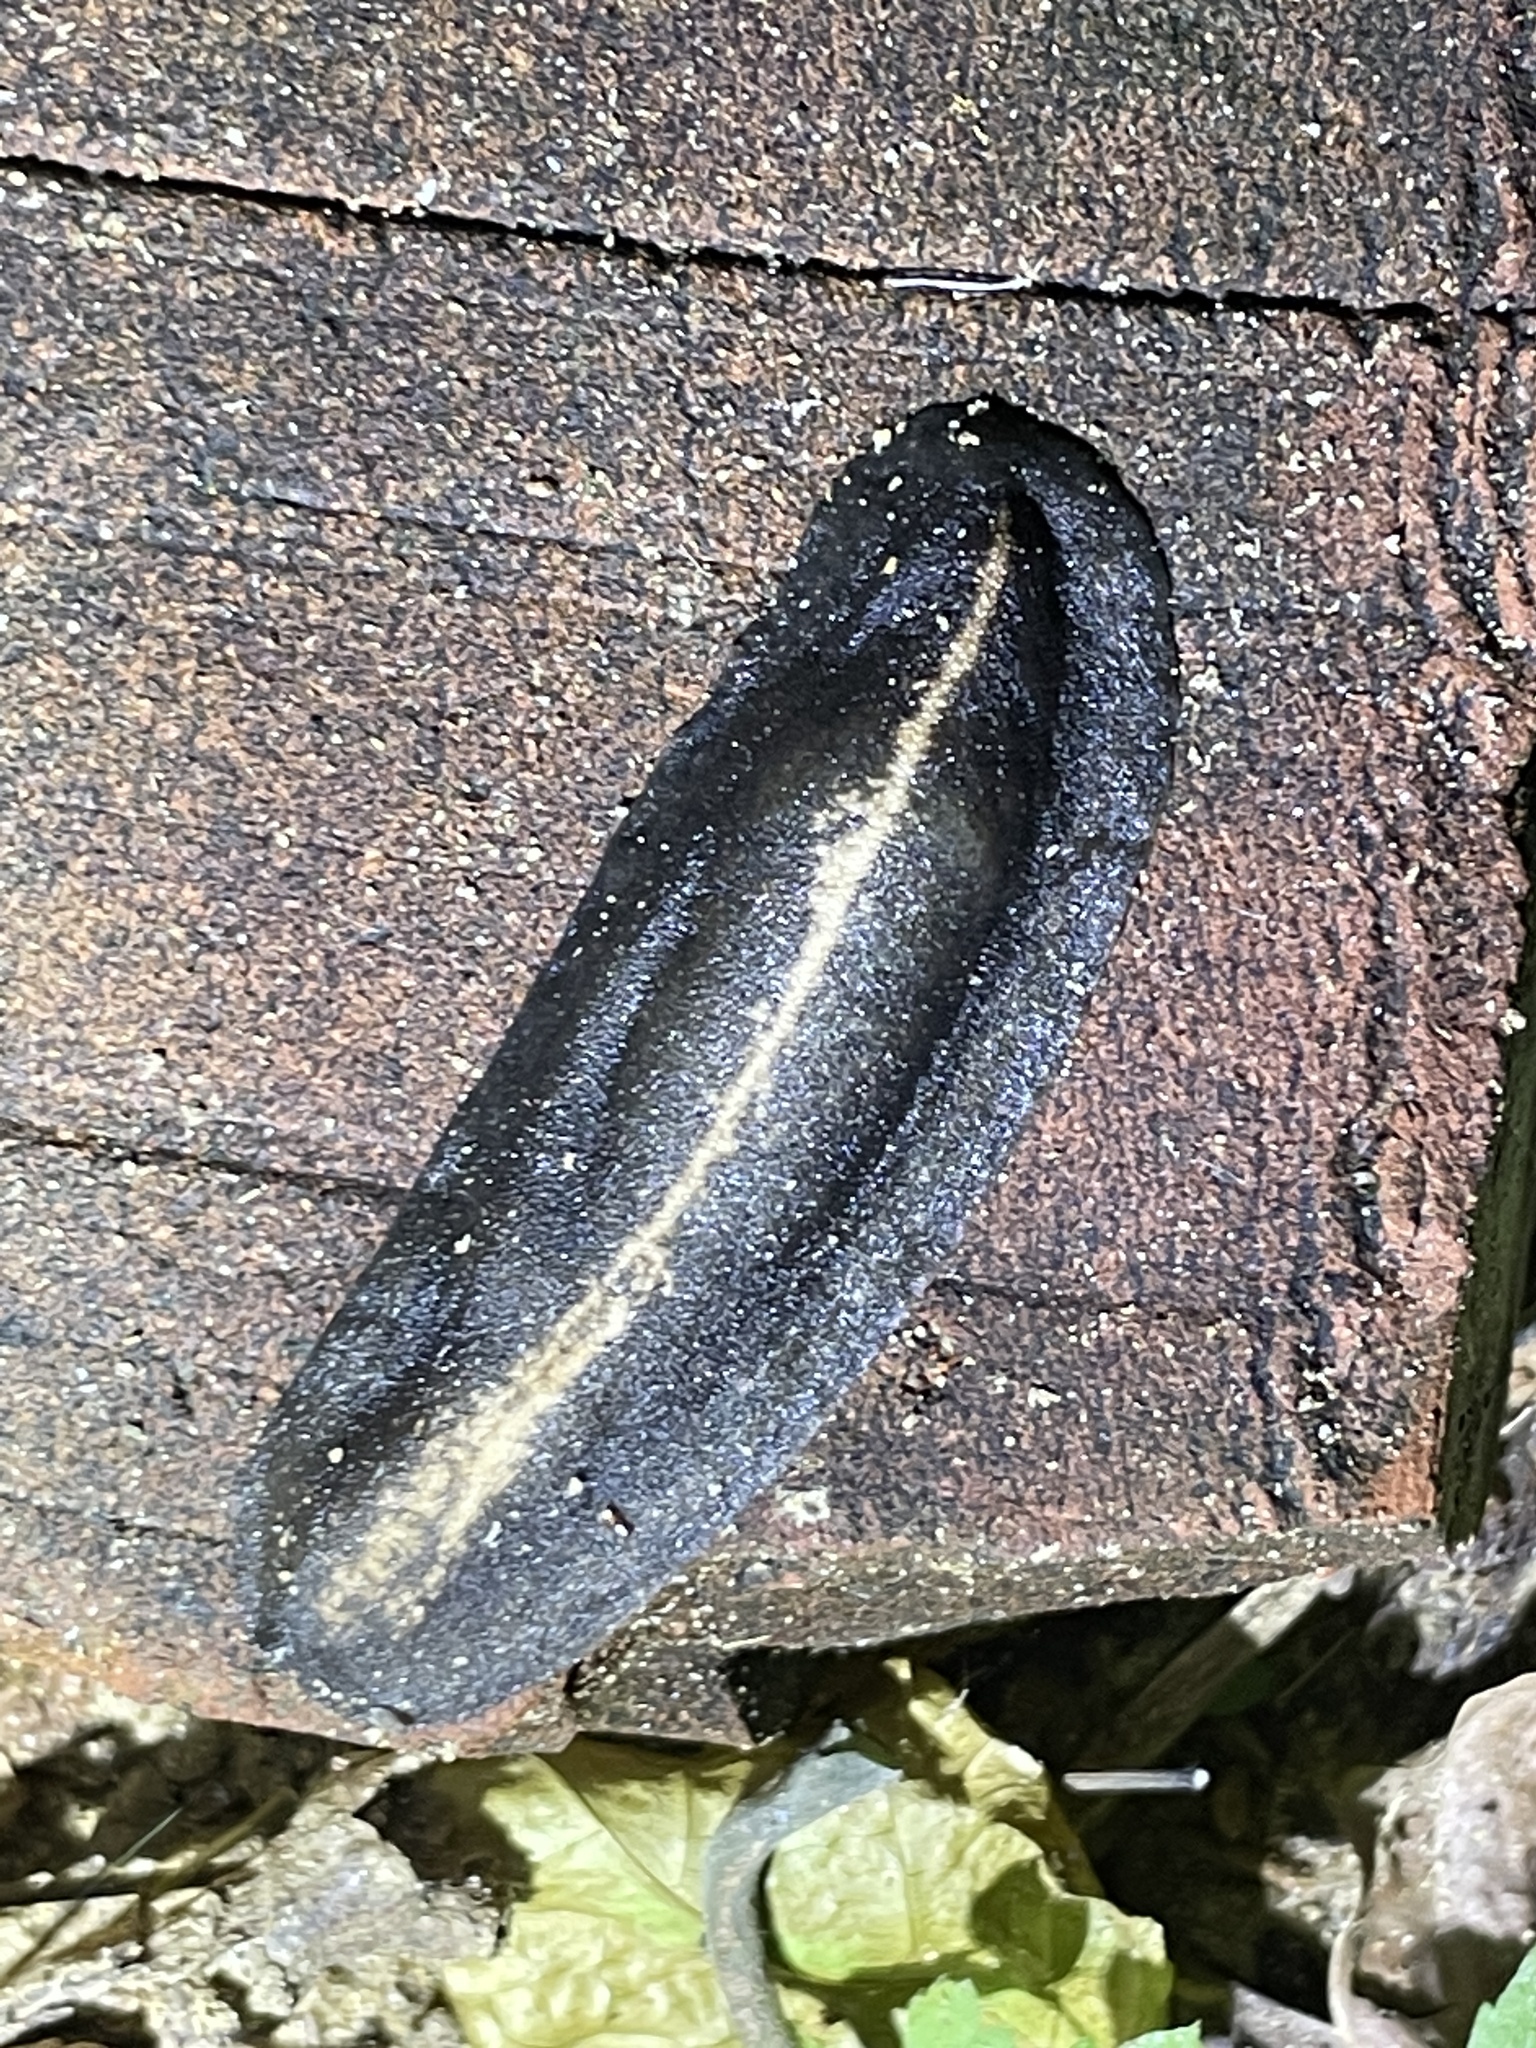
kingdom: Animalia
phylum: Mollusca
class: Gastropoda
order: Systellommatophora
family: Veronicellidae
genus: Laevicaulis
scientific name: Laevicaulis alte
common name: Tropical leatherleaf
